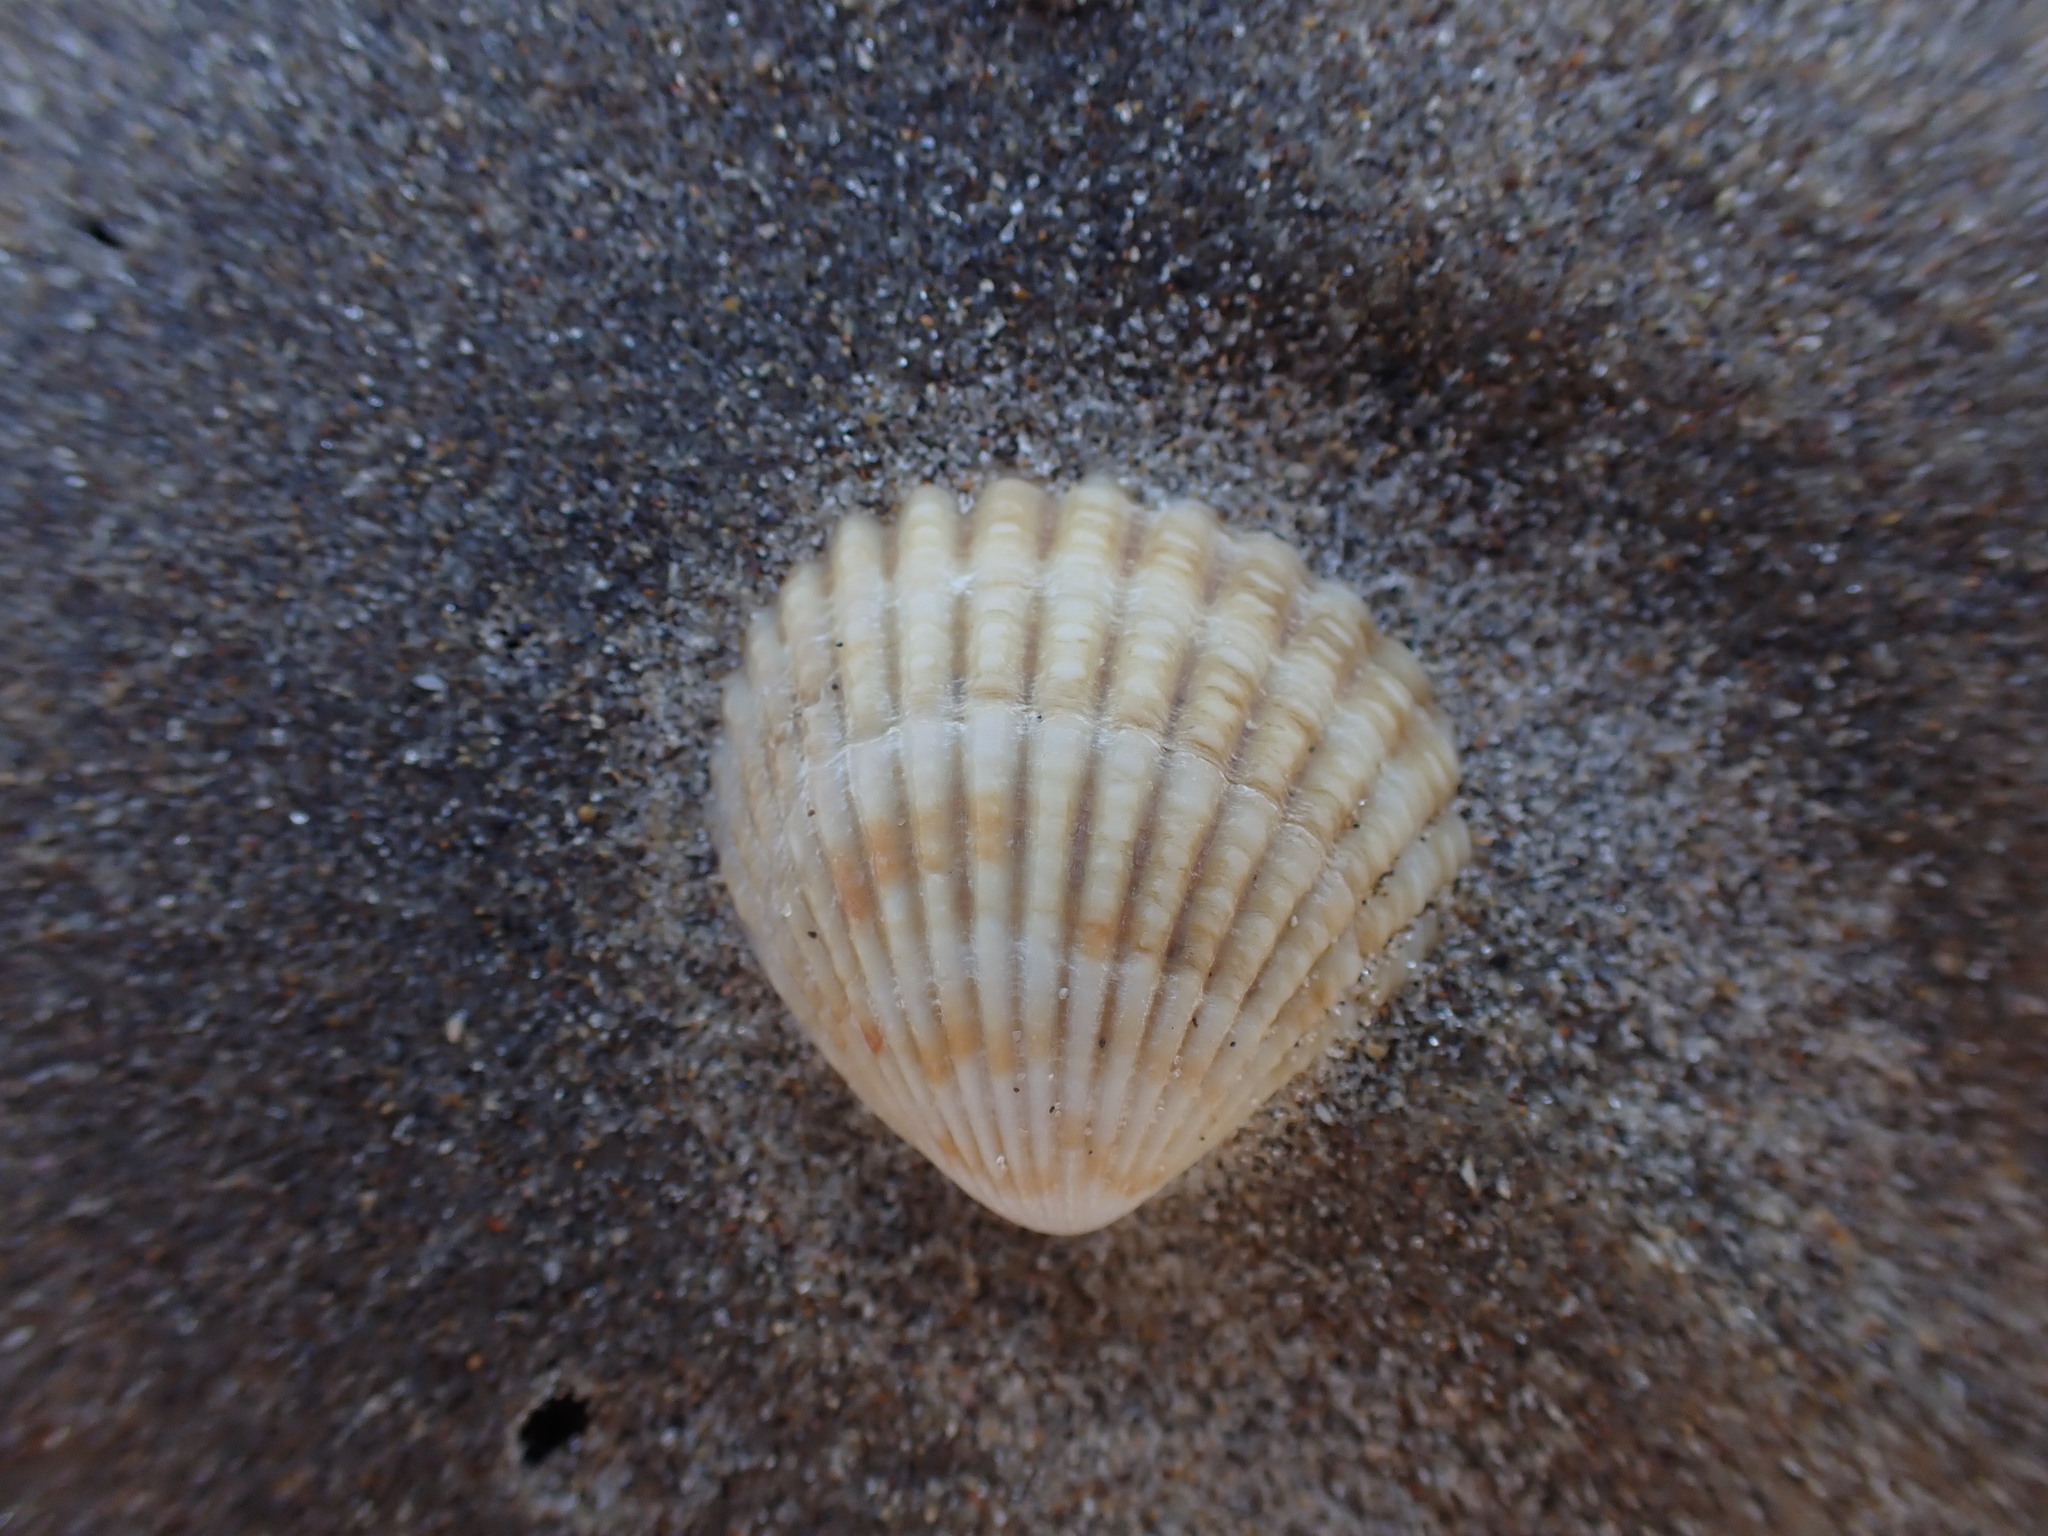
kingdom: Animalia
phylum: Mollusca
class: Bivalvia
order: Carditida
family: Carditidae
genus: Purpurocardia
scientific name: Purpurocardia purpurata
